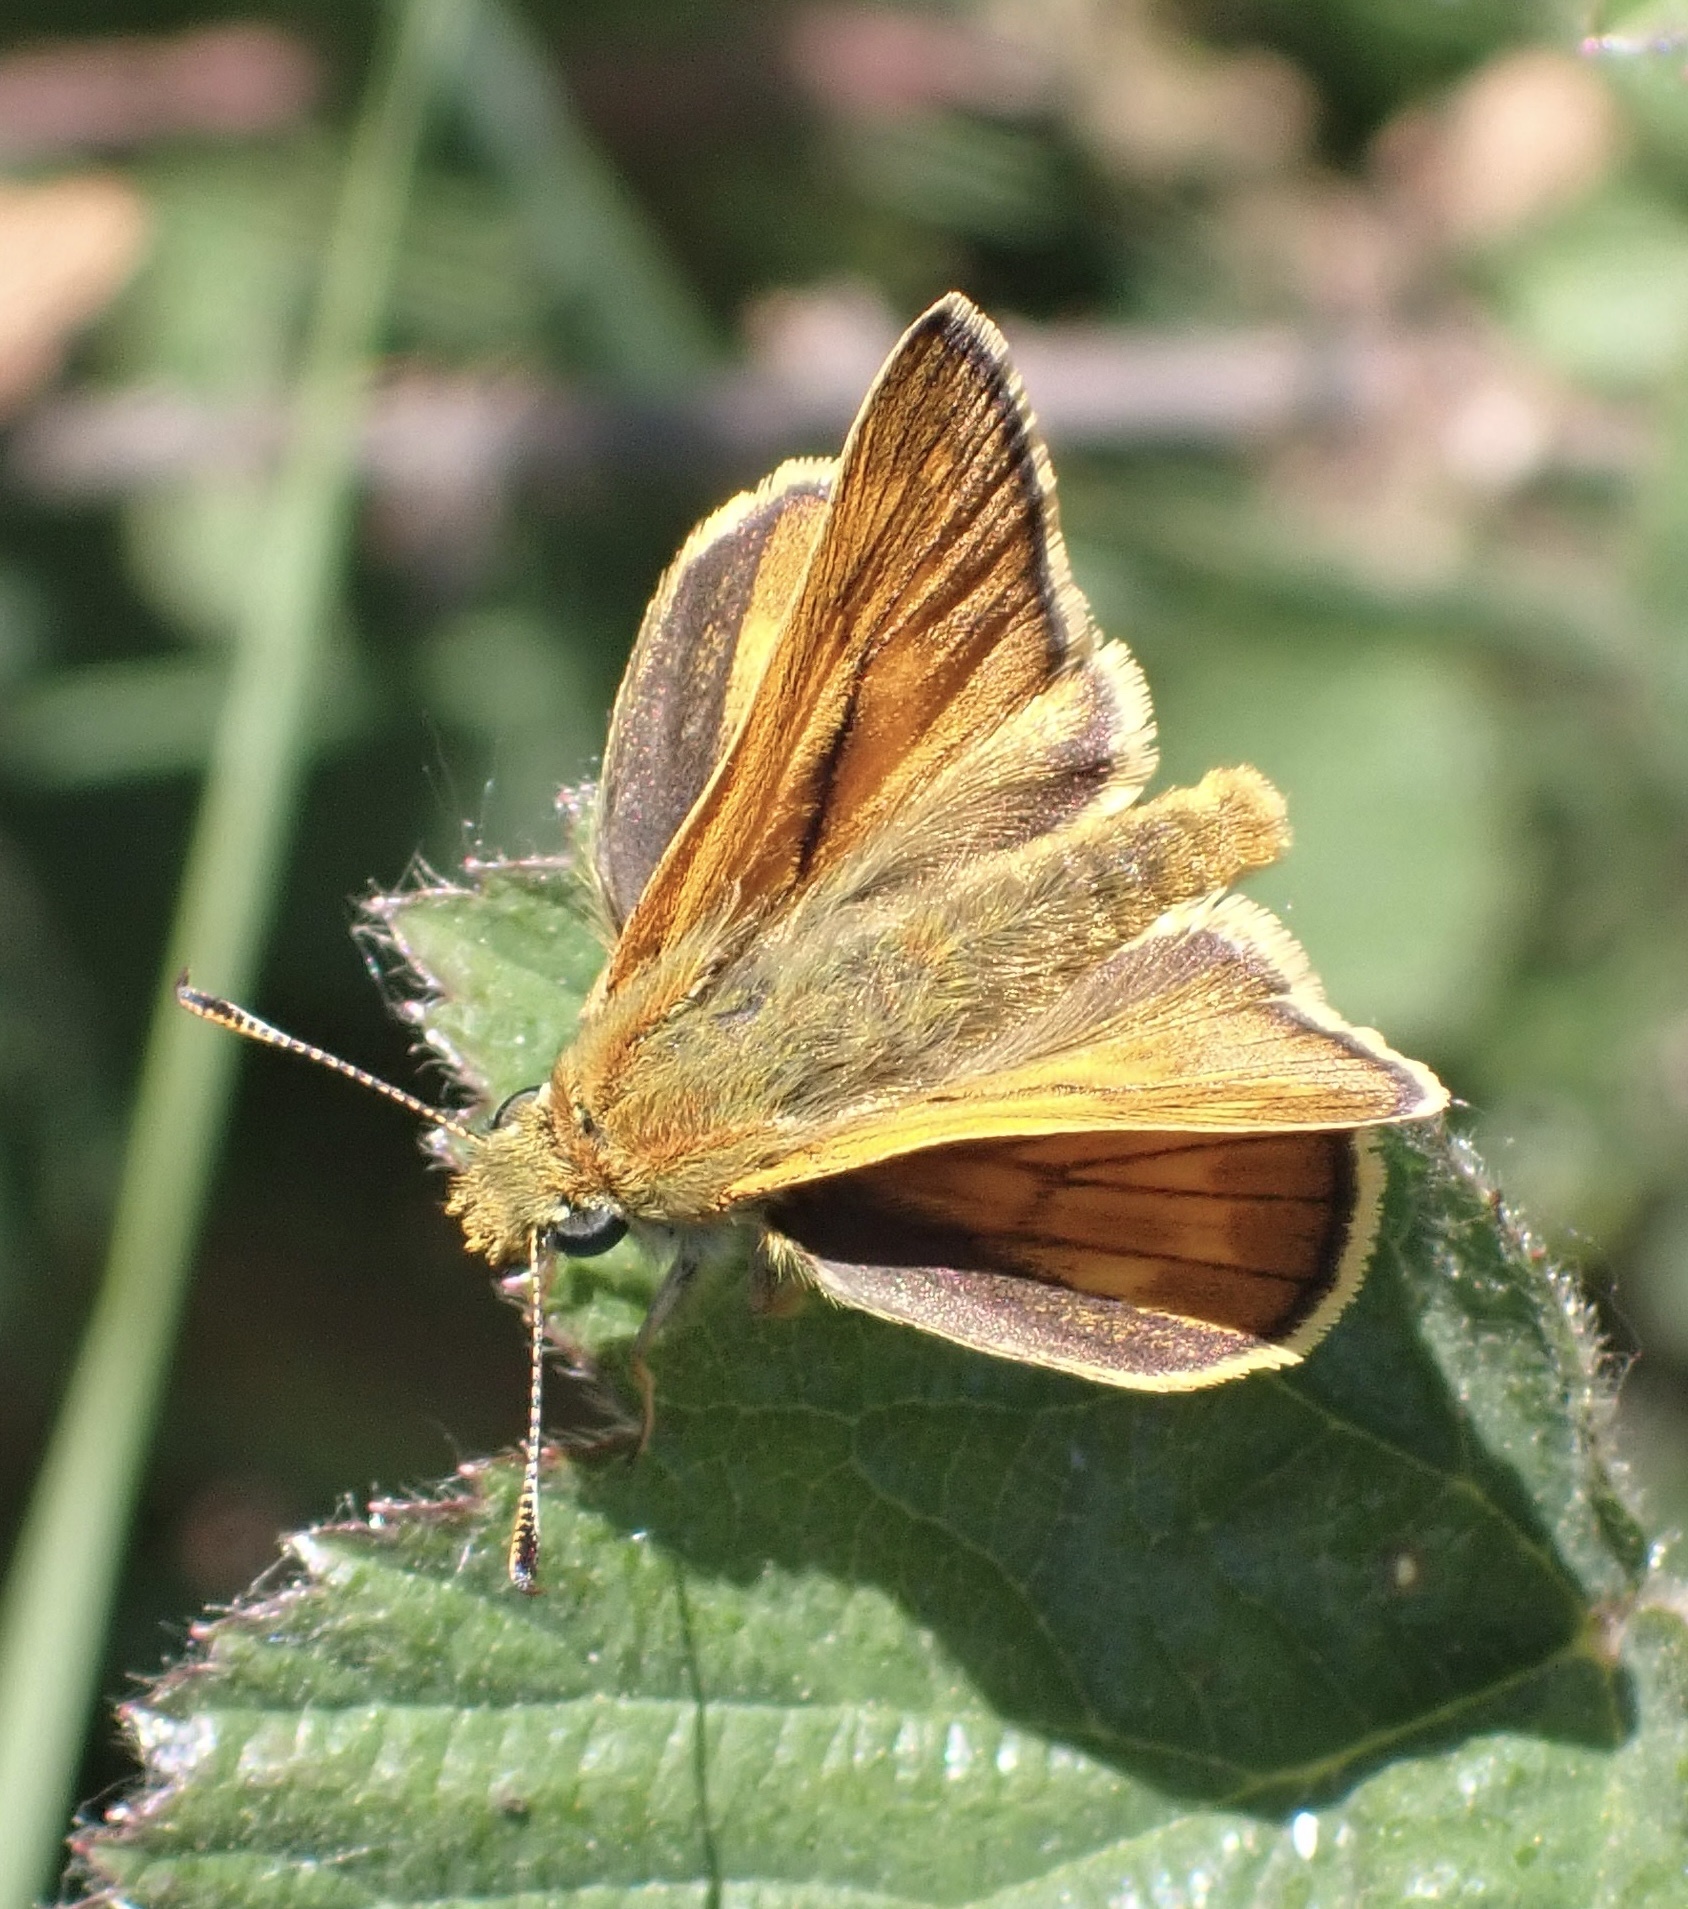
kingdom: Animalia
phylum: Arthropoda
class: Insecta
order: Lepidoptera
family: Hesperiidae
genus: Ochlodes
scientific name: Ochlodes venata
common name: Large skipper
